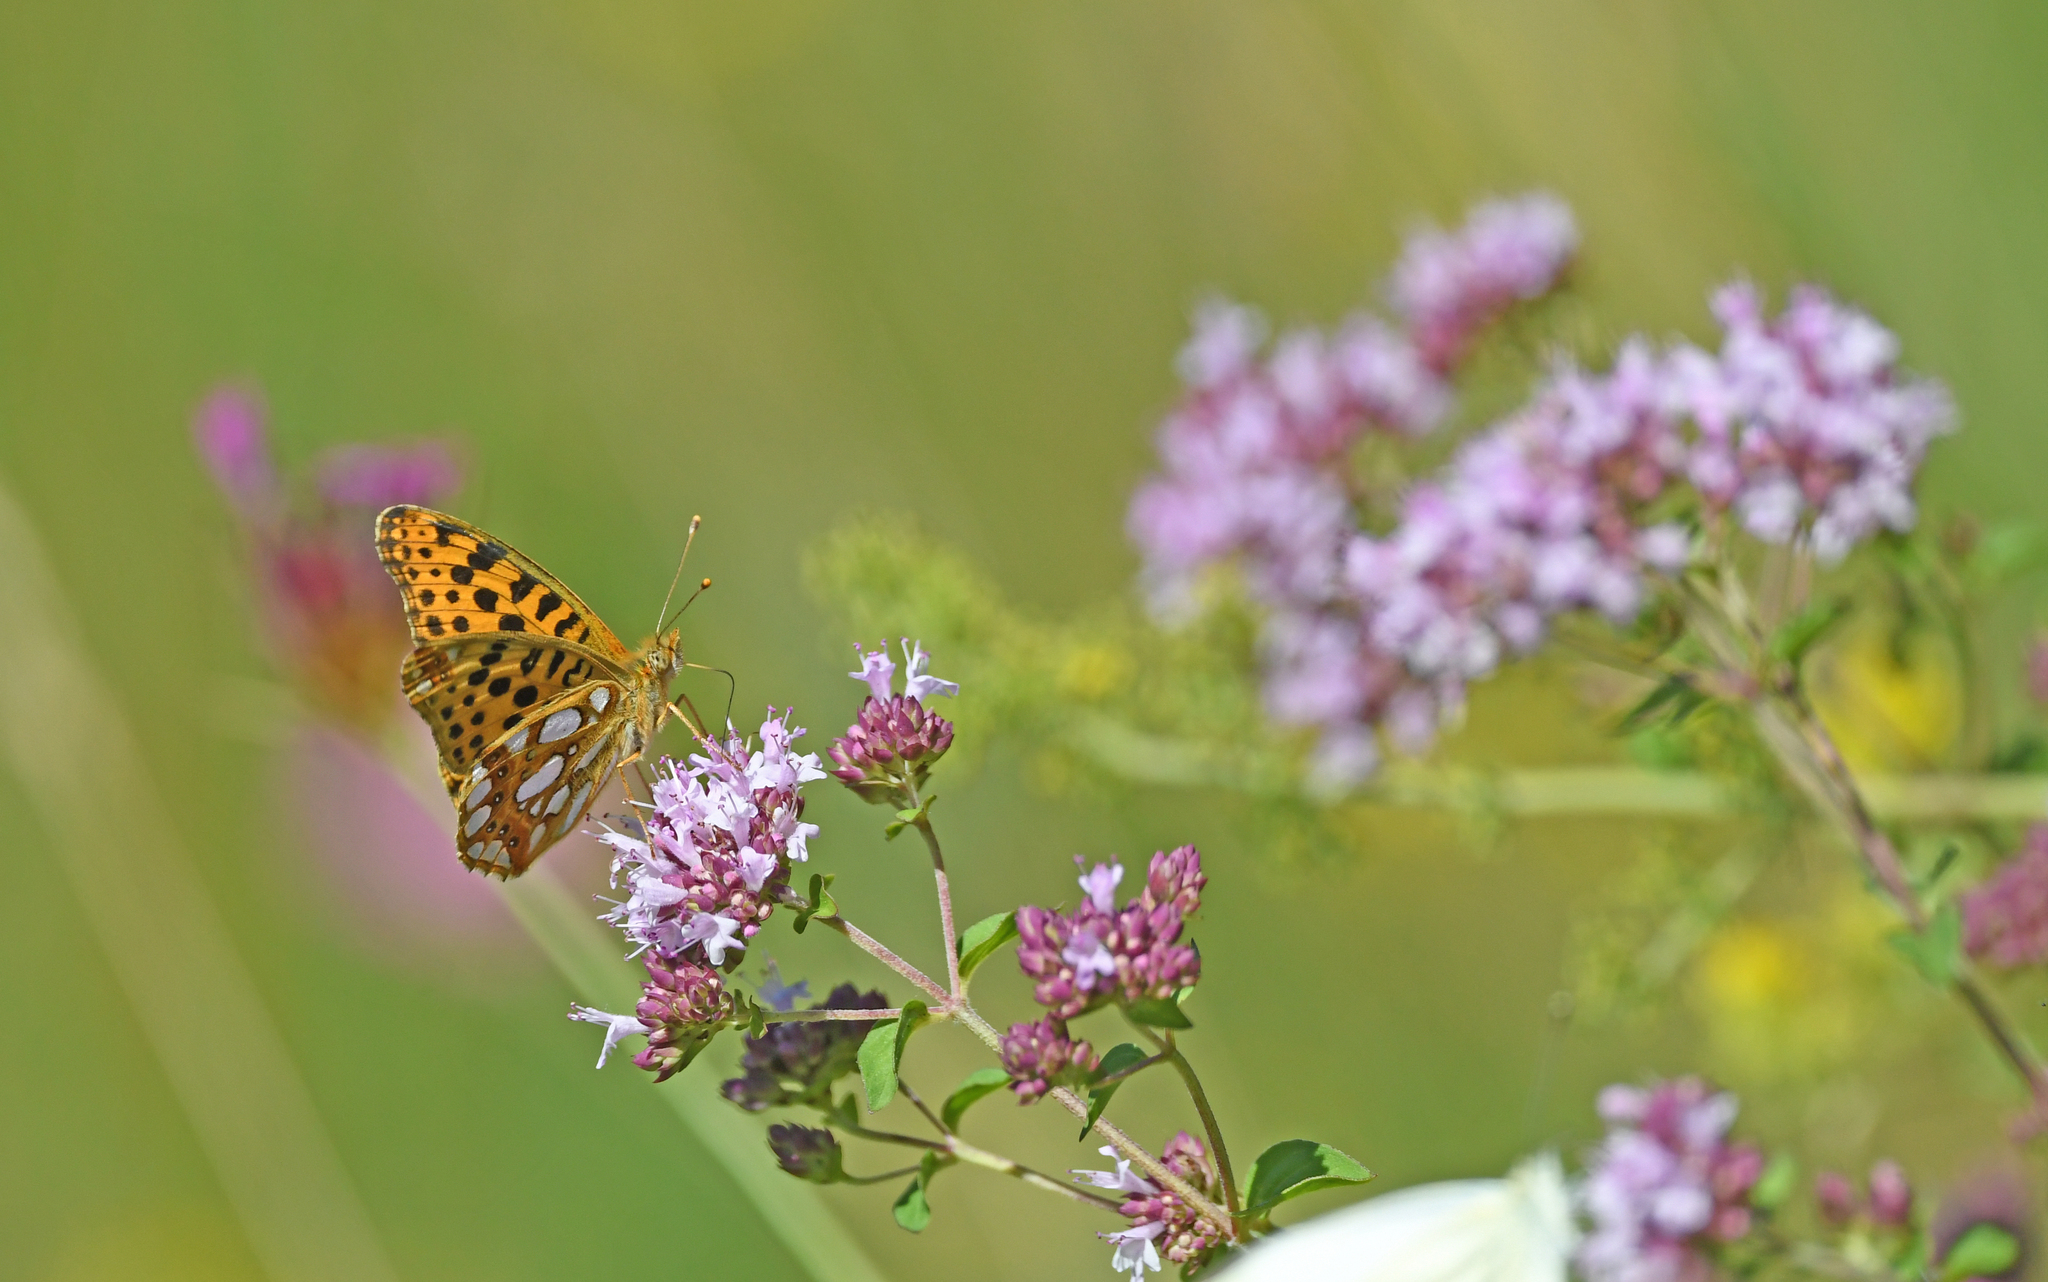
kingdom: Animalia
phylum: Arthropoda
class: Insecta
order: Lepidoptera
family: Nymphalidae
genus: Issoria
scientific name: Issoria lathonia
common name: Queen of spain fritillary
